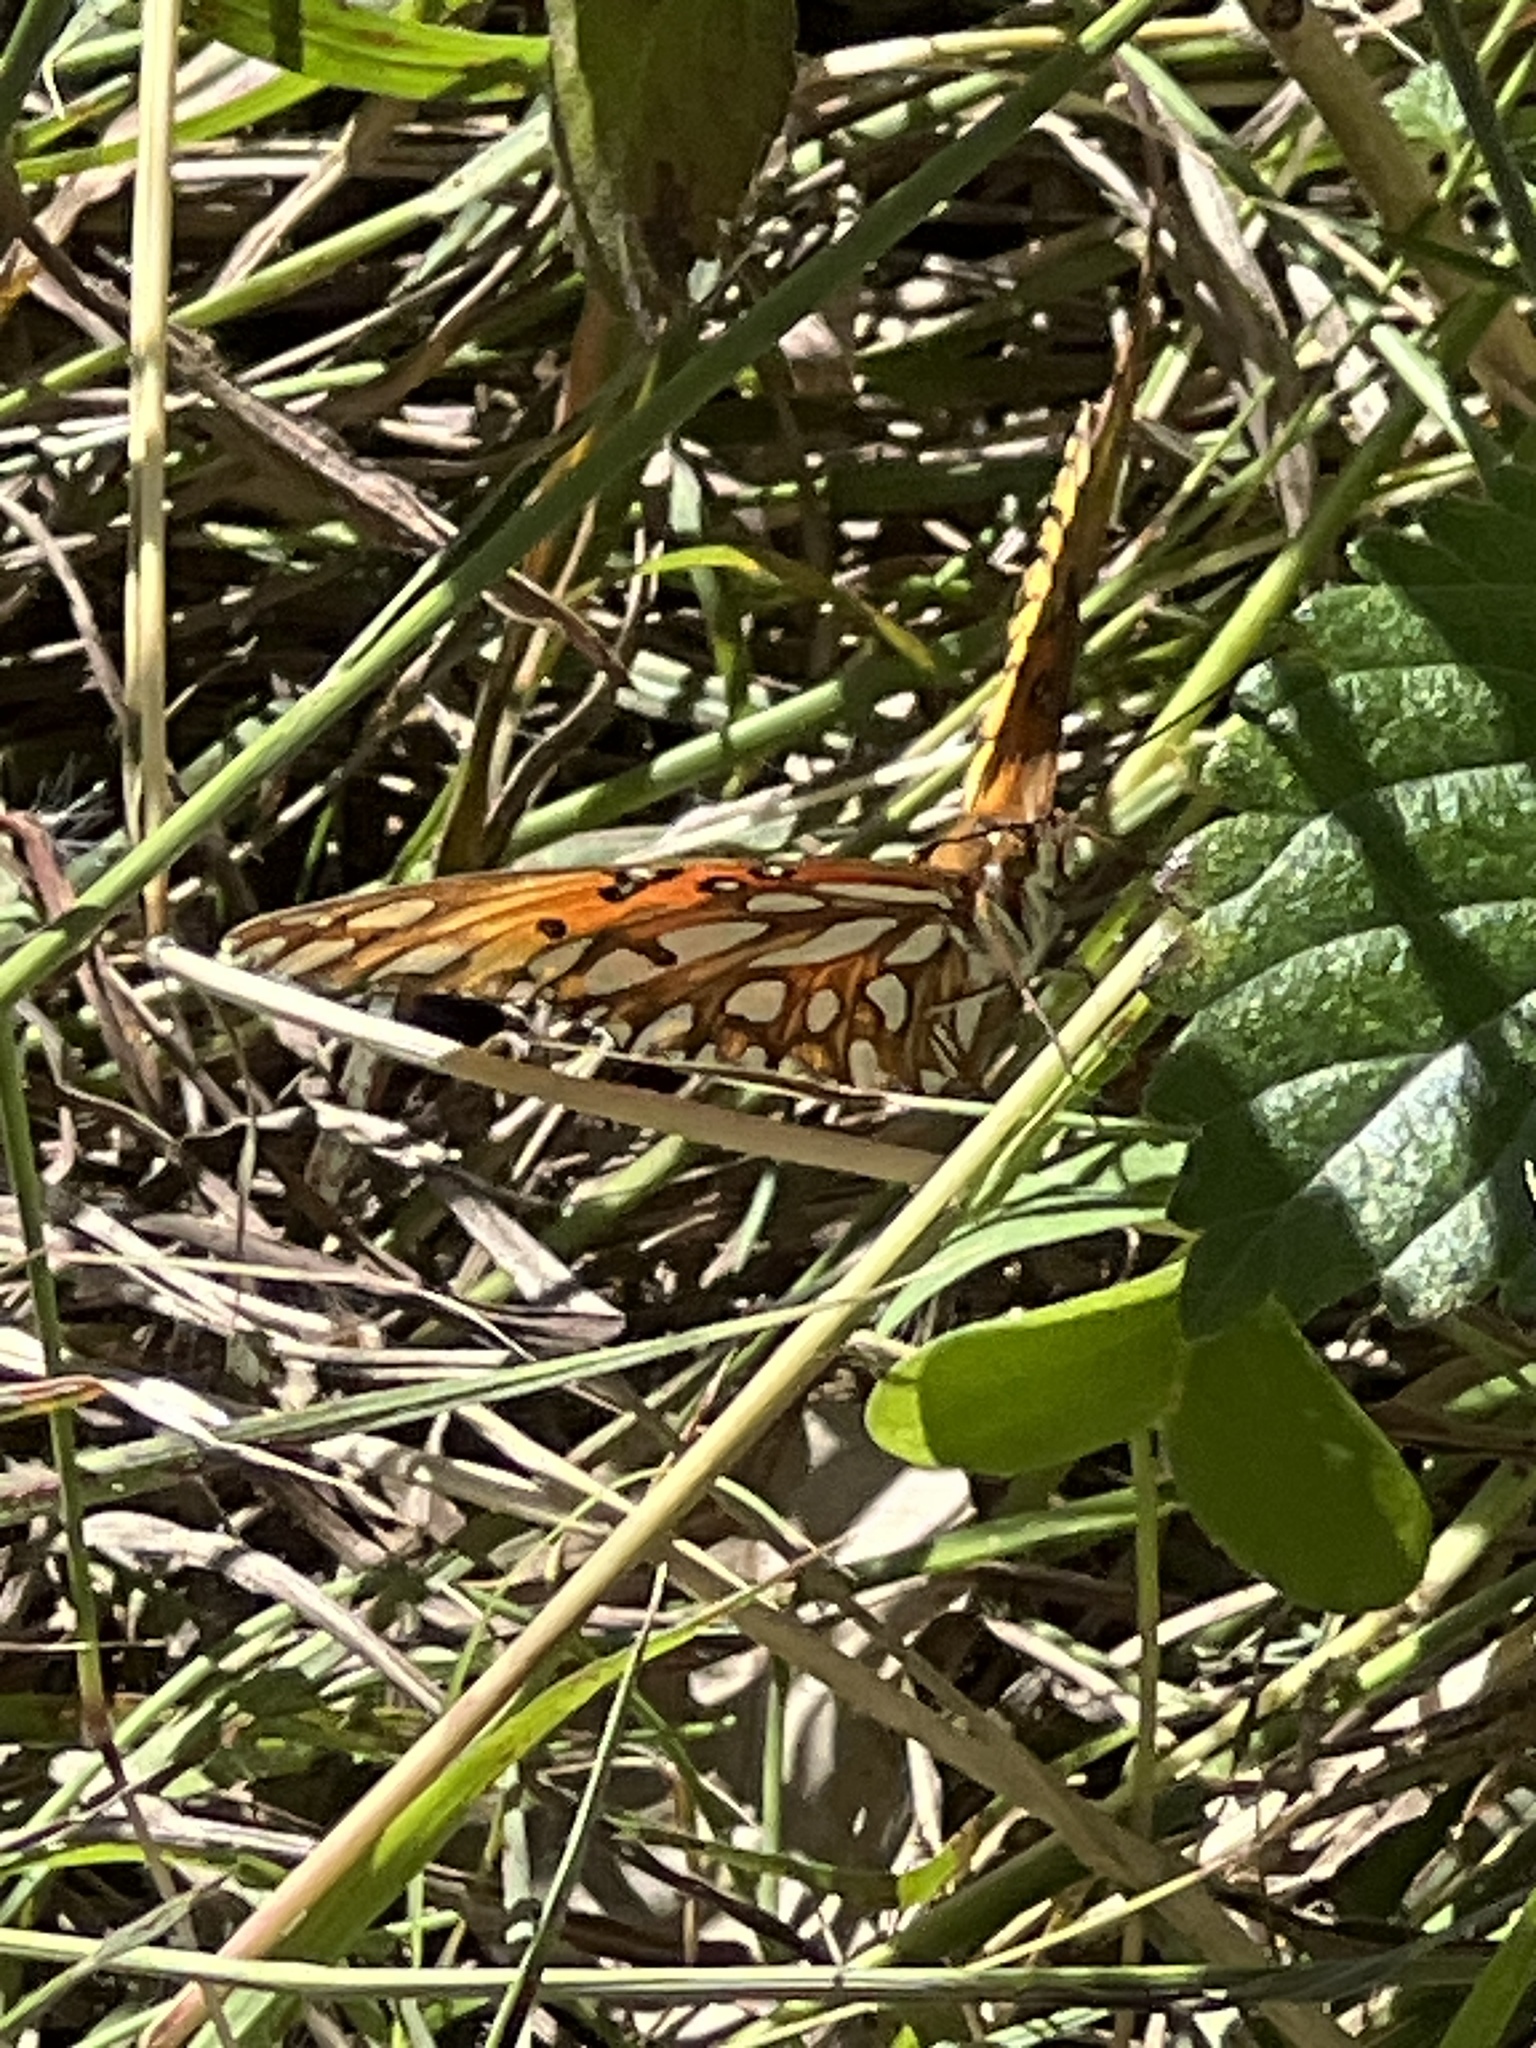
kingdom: Animalia
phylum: Arthropoda
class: Insecta
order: Lepidoptera
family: Nymphalidae
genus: Dione
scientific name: Dione vanillae
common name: Gulf fritillary
